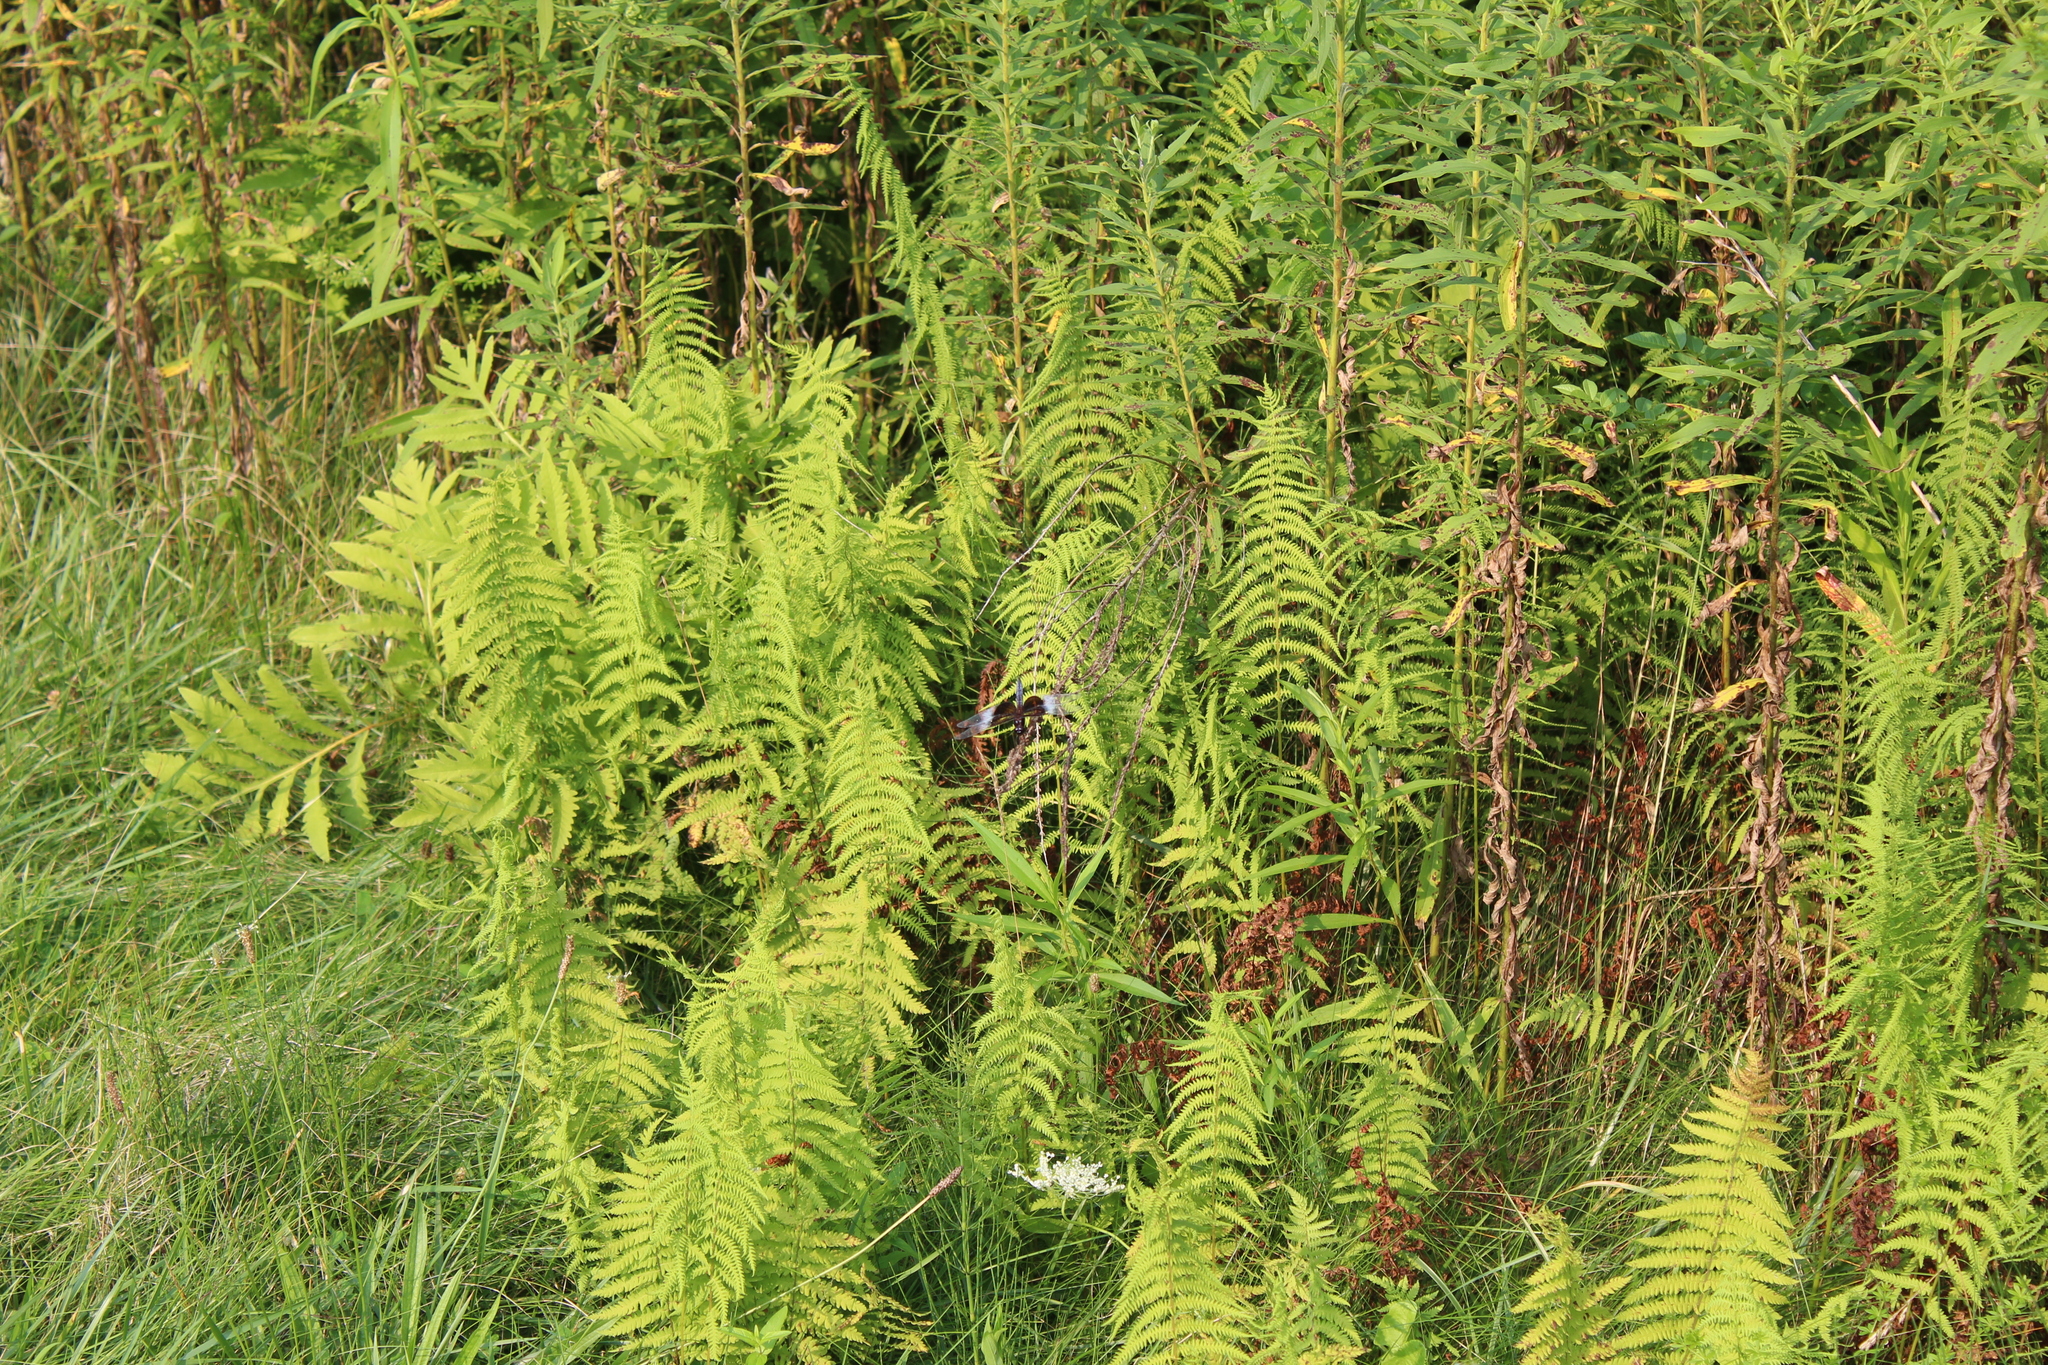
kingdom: Plantae
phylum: Tracheophyta
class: Polypodiopsida
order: Polypodiales
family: Thelypteridaceae
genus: Amauropelta
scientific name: Amauropelta noveboracensis
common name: New york fern
